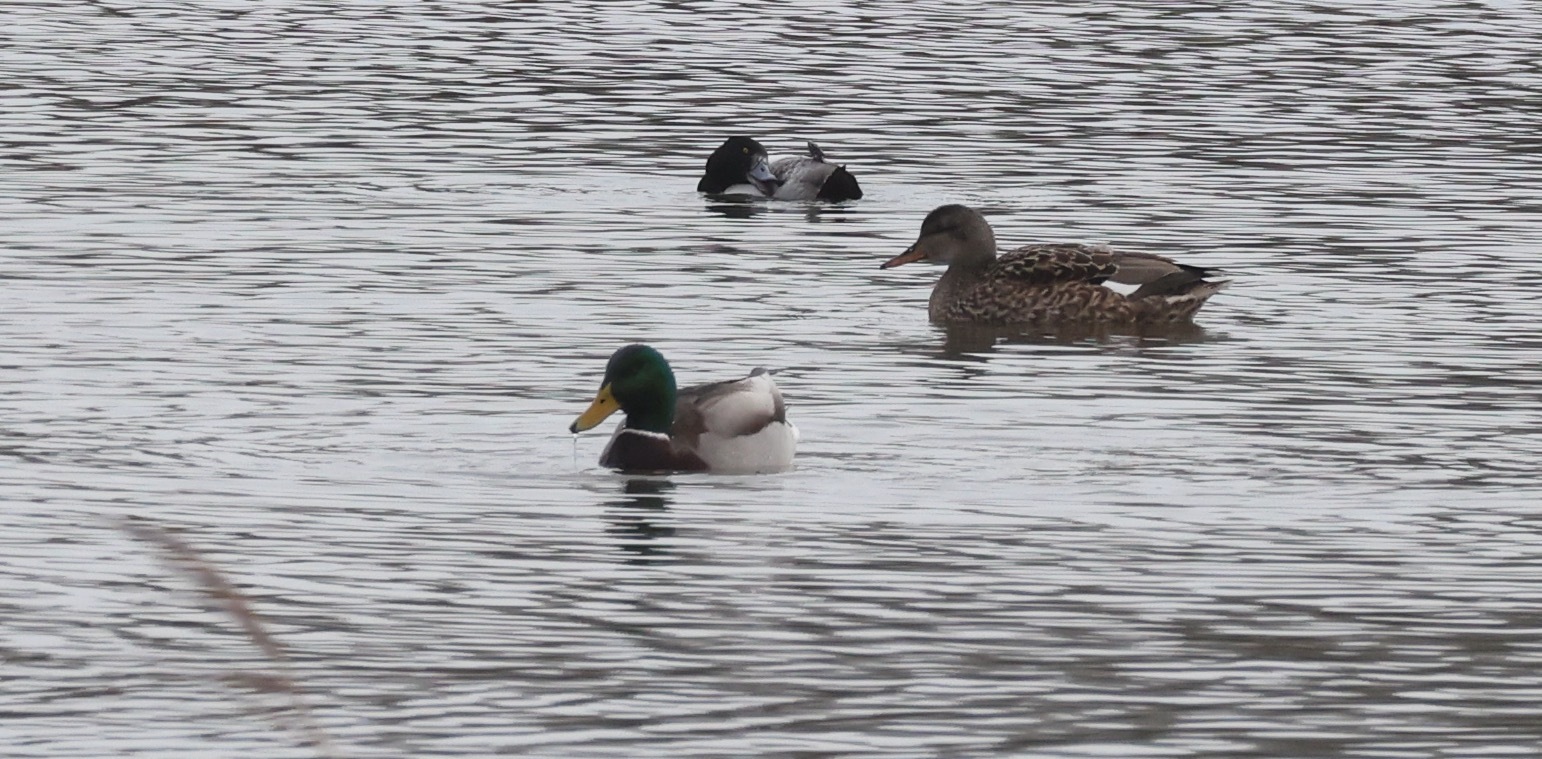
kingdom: Animalia
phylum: Chordata
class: Aves
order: Anseriformes
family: Anatidae
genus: Anas
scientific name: Anas platyrhynchos
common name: Mallard
